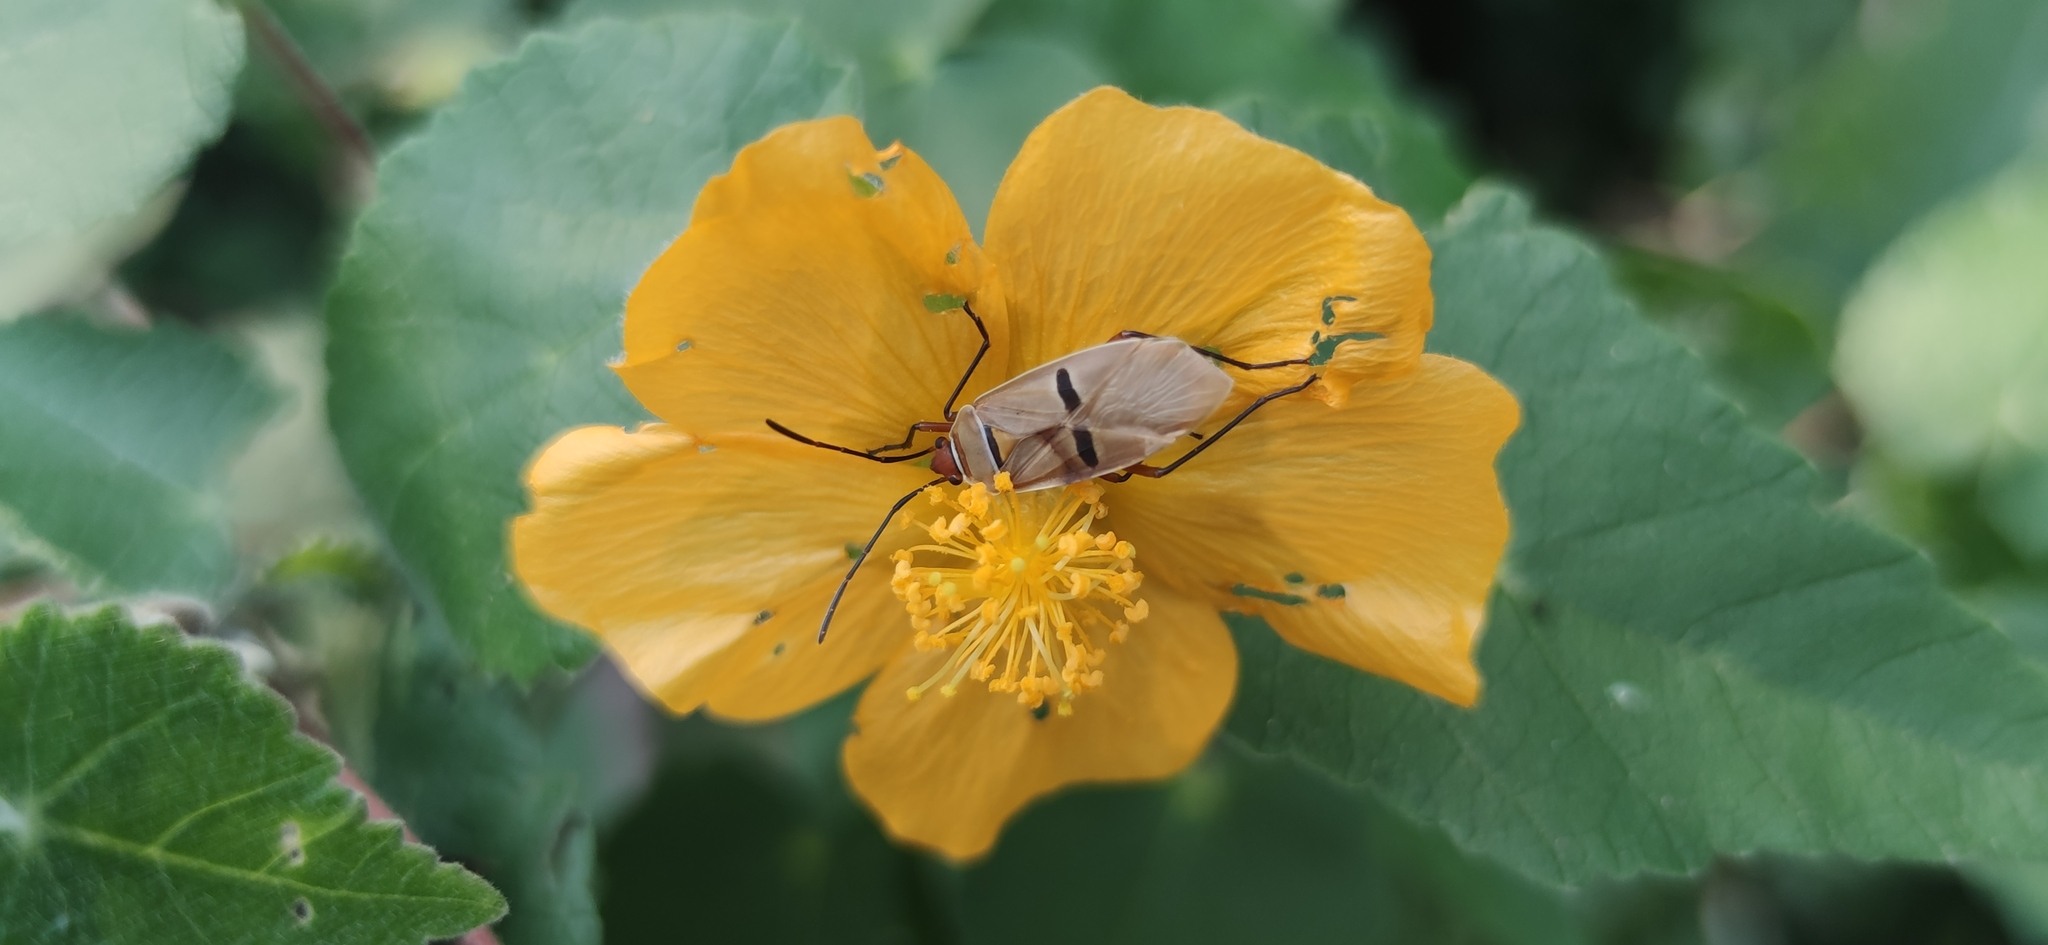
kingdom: Animalia
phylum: Arthropoda
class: Insecta
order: Hemiptera
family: Largidae
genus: Largus
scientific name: Largus maculatus
